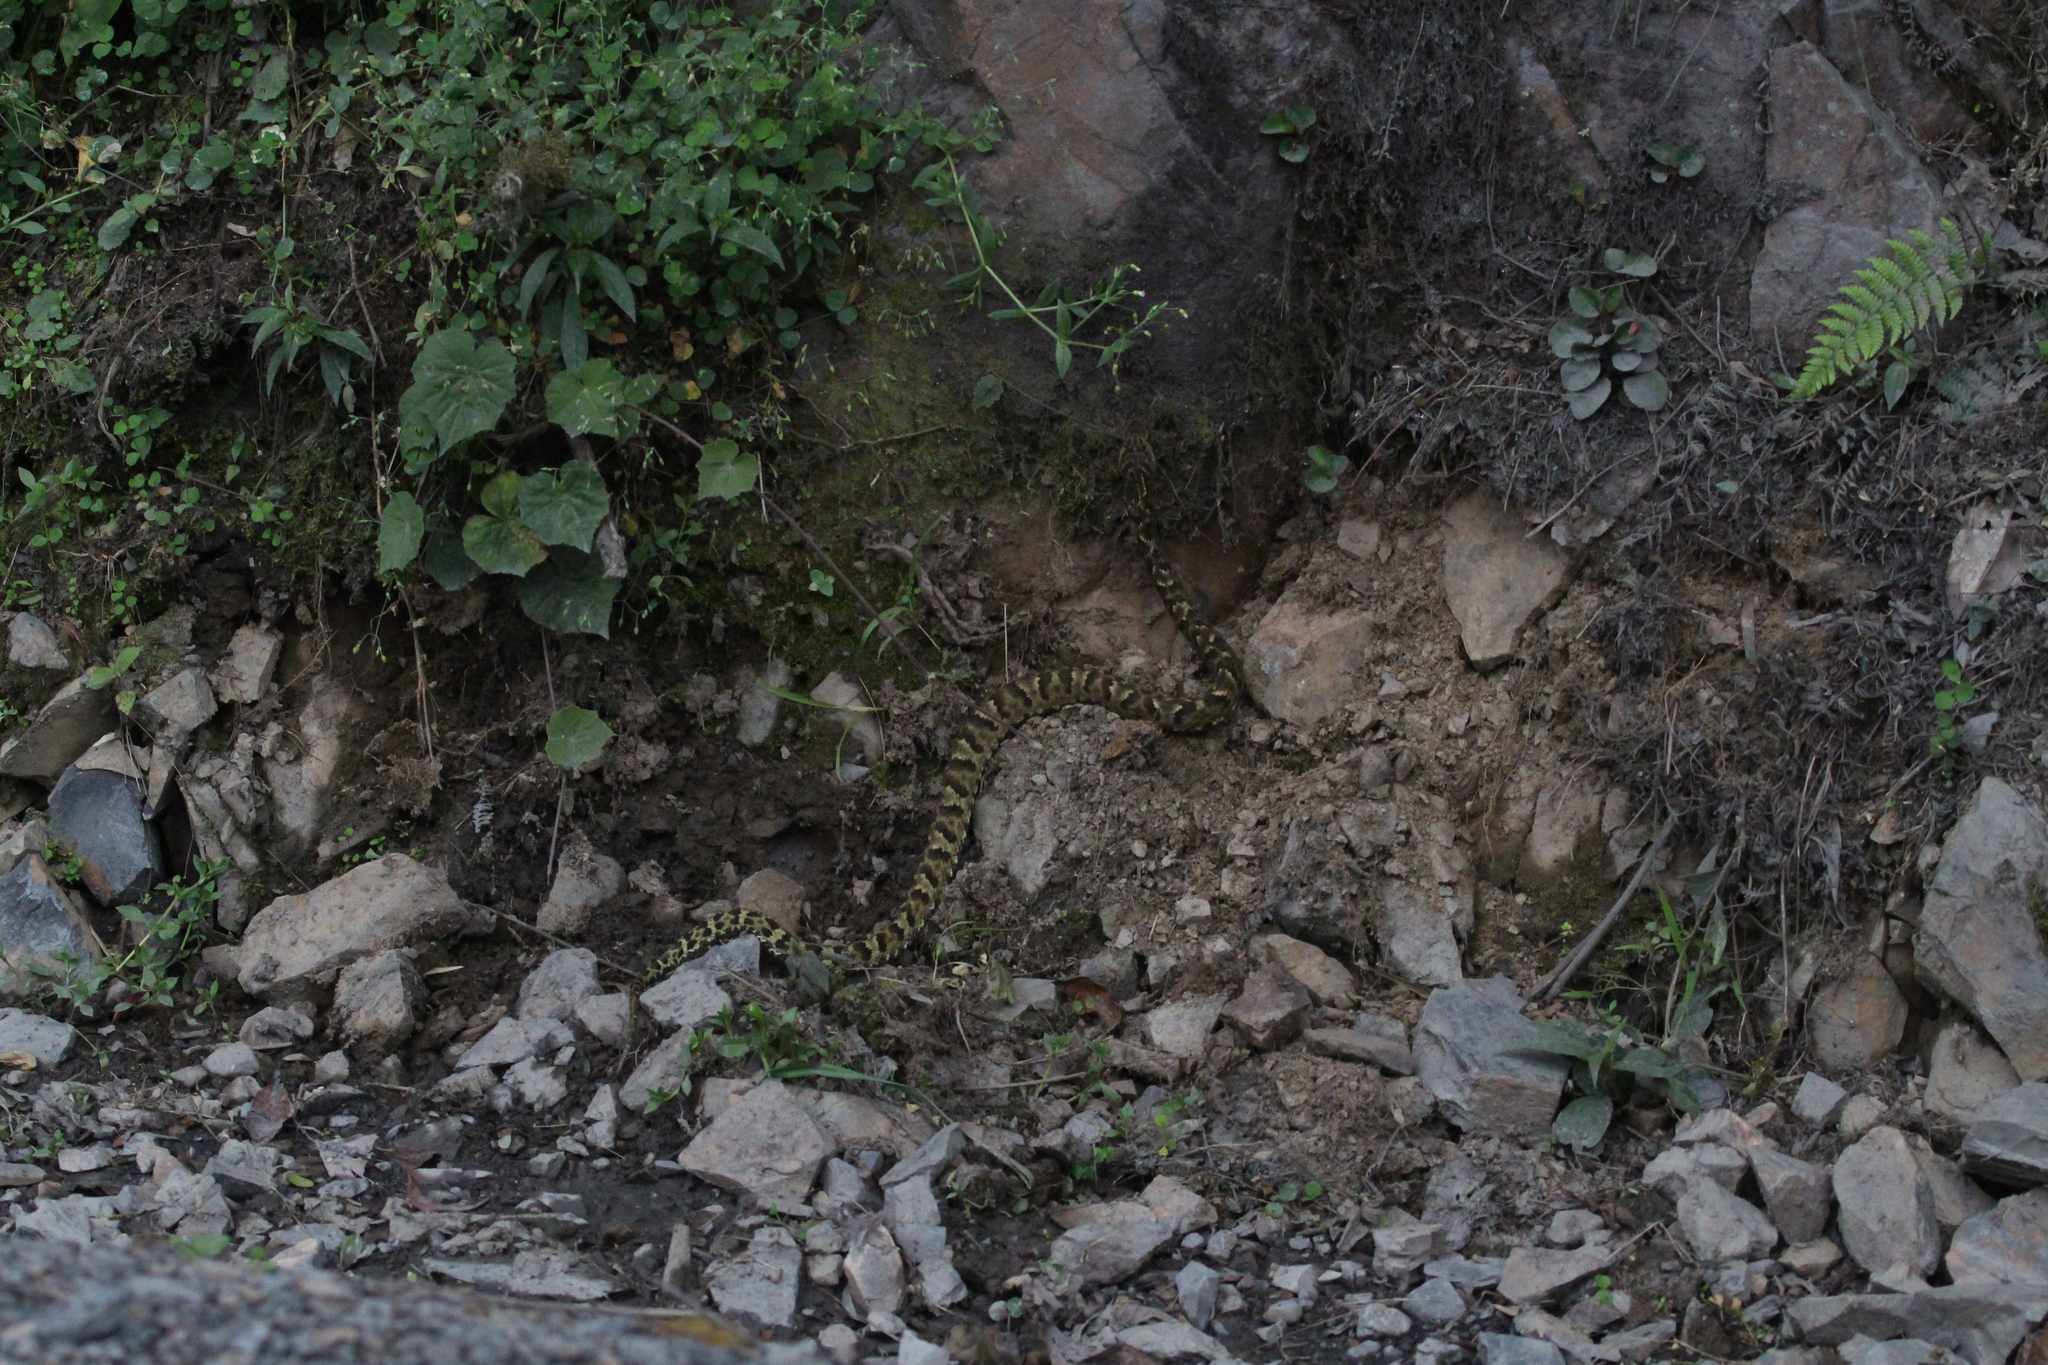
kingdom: Animalia
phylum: Chordata
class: Squamata
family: Viperidae
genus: Bothrocophias
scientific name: Bothrocophias andianus
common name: Andean lancehead
